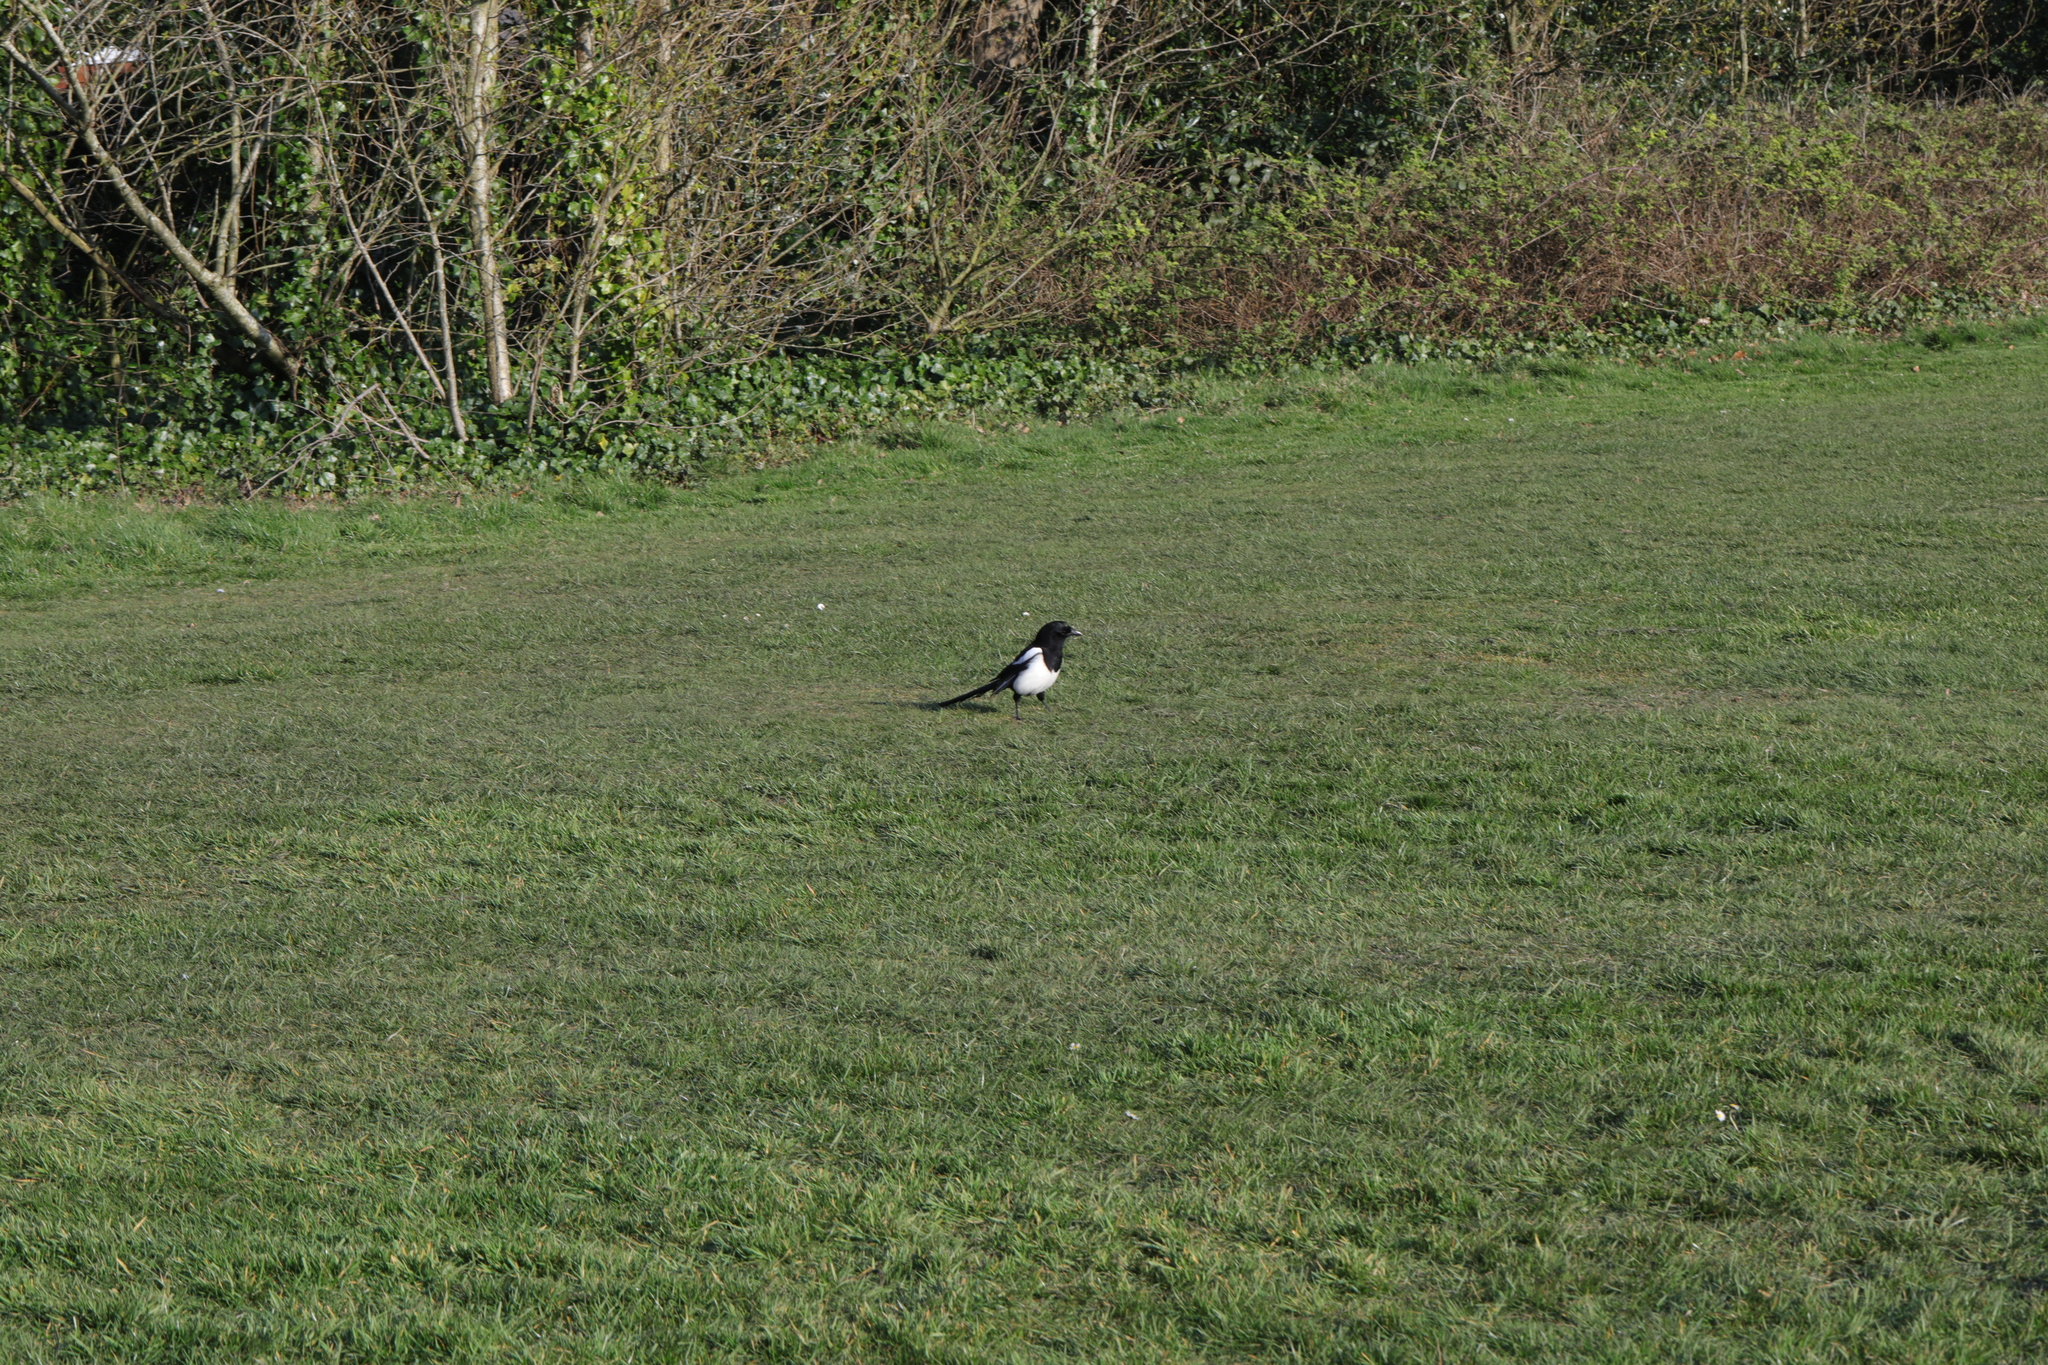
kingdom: Animalia
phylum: Chordata
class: Aves
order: Passeriformes
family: Corvidae
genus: Pica
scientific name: Pica pica
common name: Eurasian magpie
